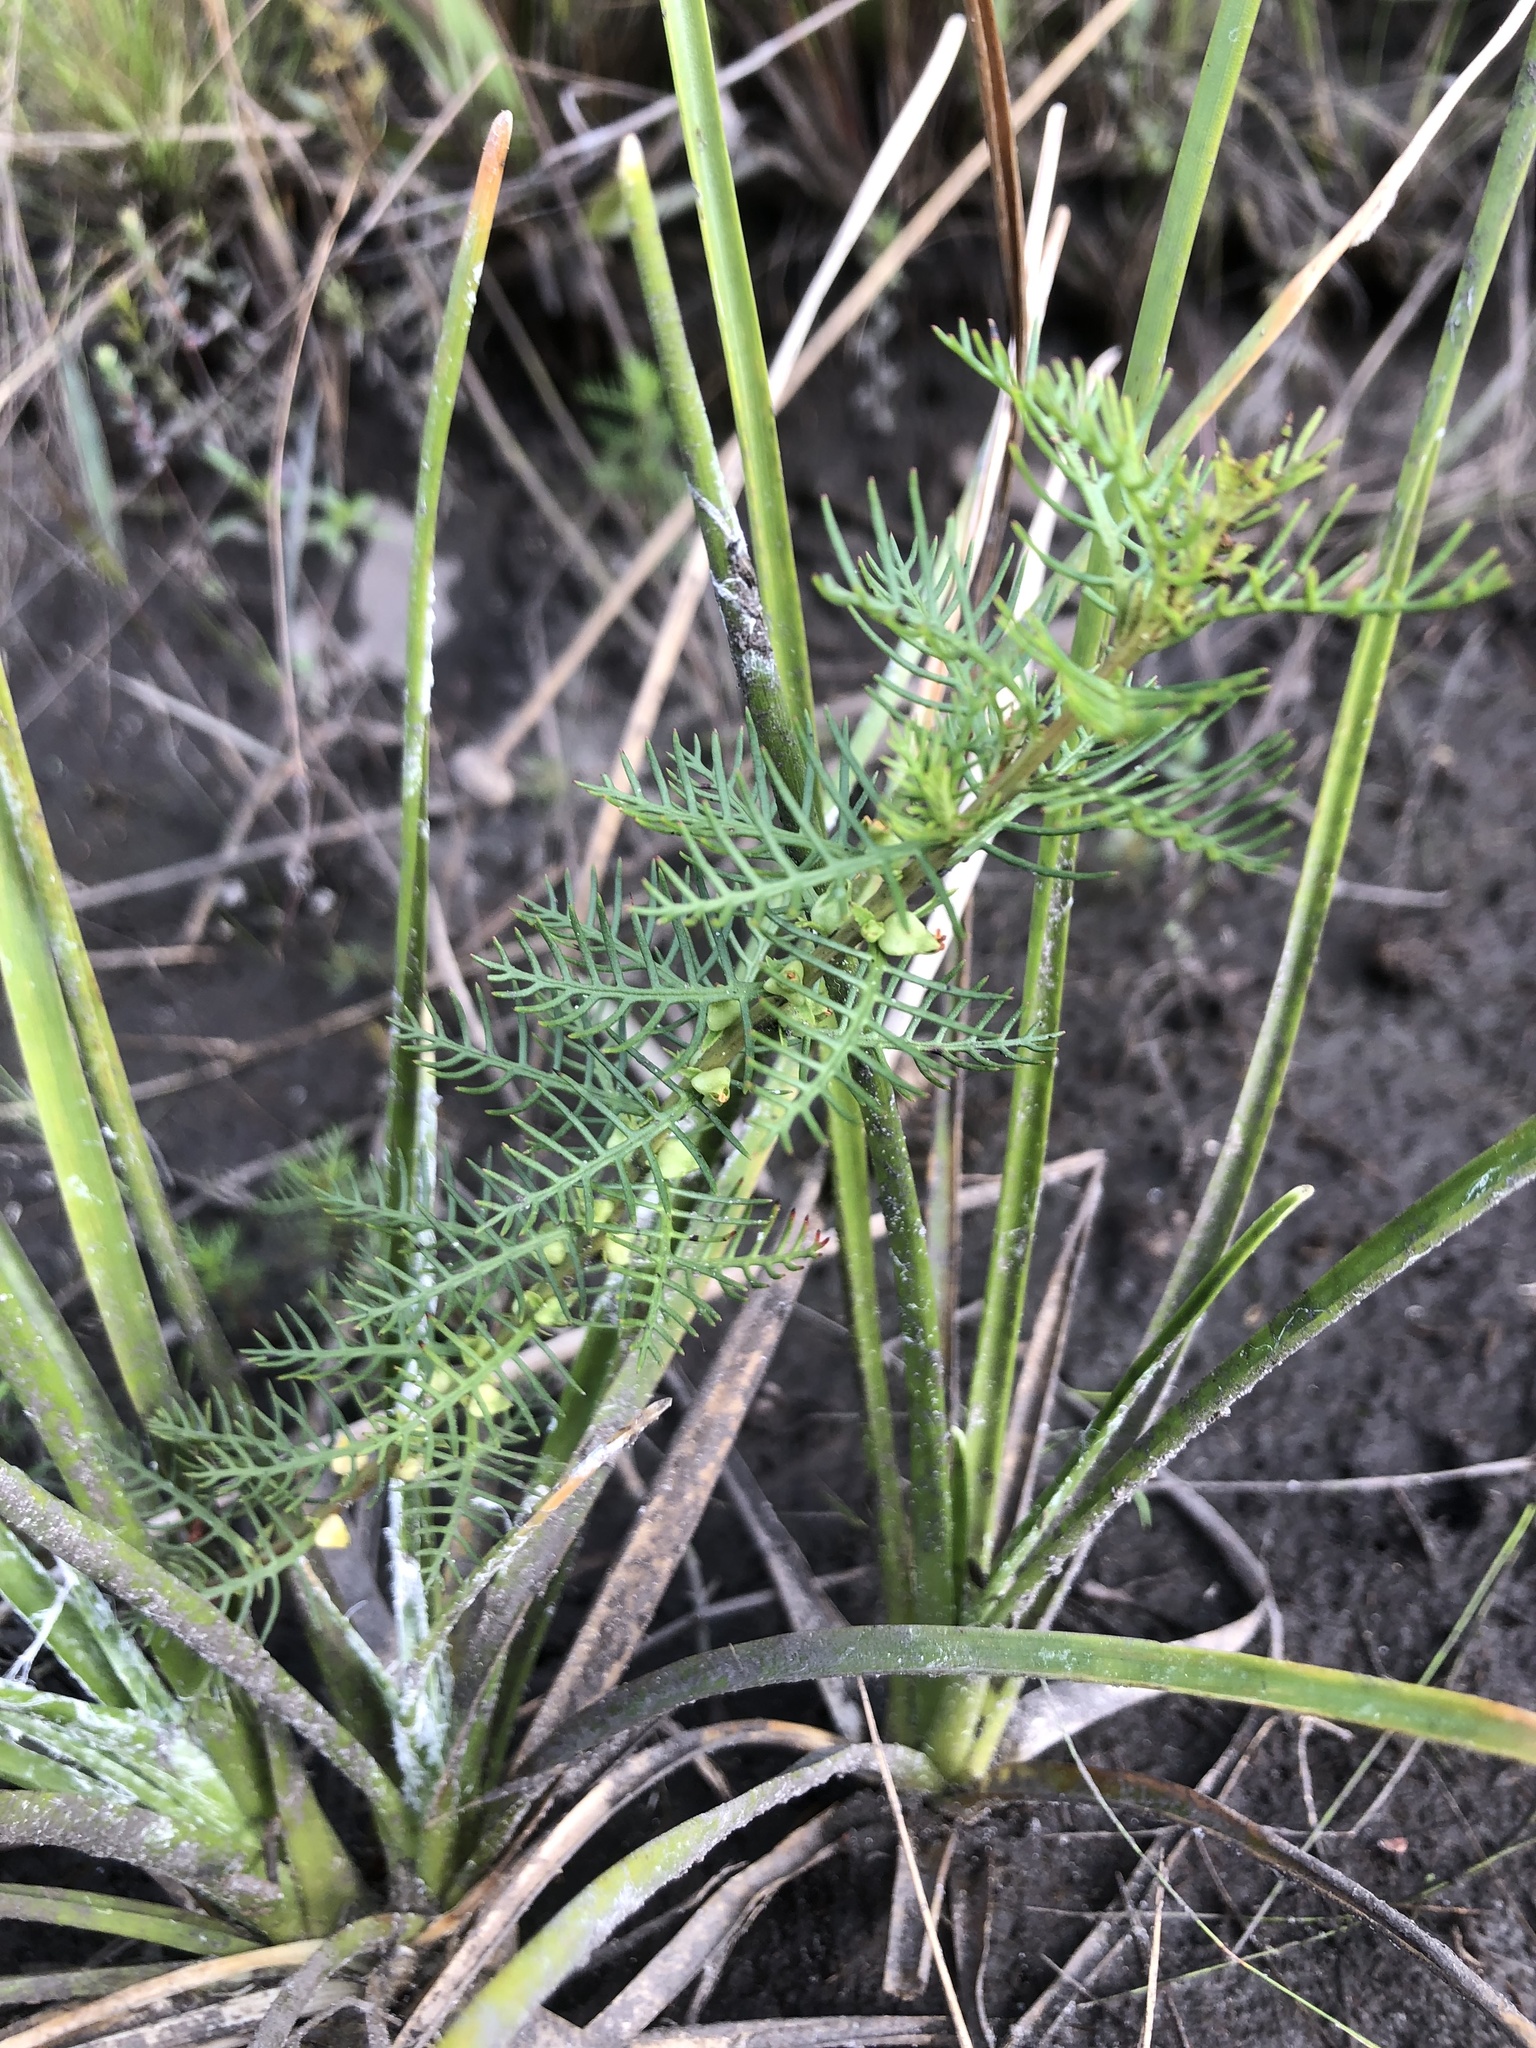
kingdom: Plantae
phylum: Tracheophyta
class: Magnoliopsida
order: Saxifragales
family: Haloragaceae
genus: Proserpinaca
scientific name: Proserpinaca pectinata
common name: Comb-leaved mermaidweed
